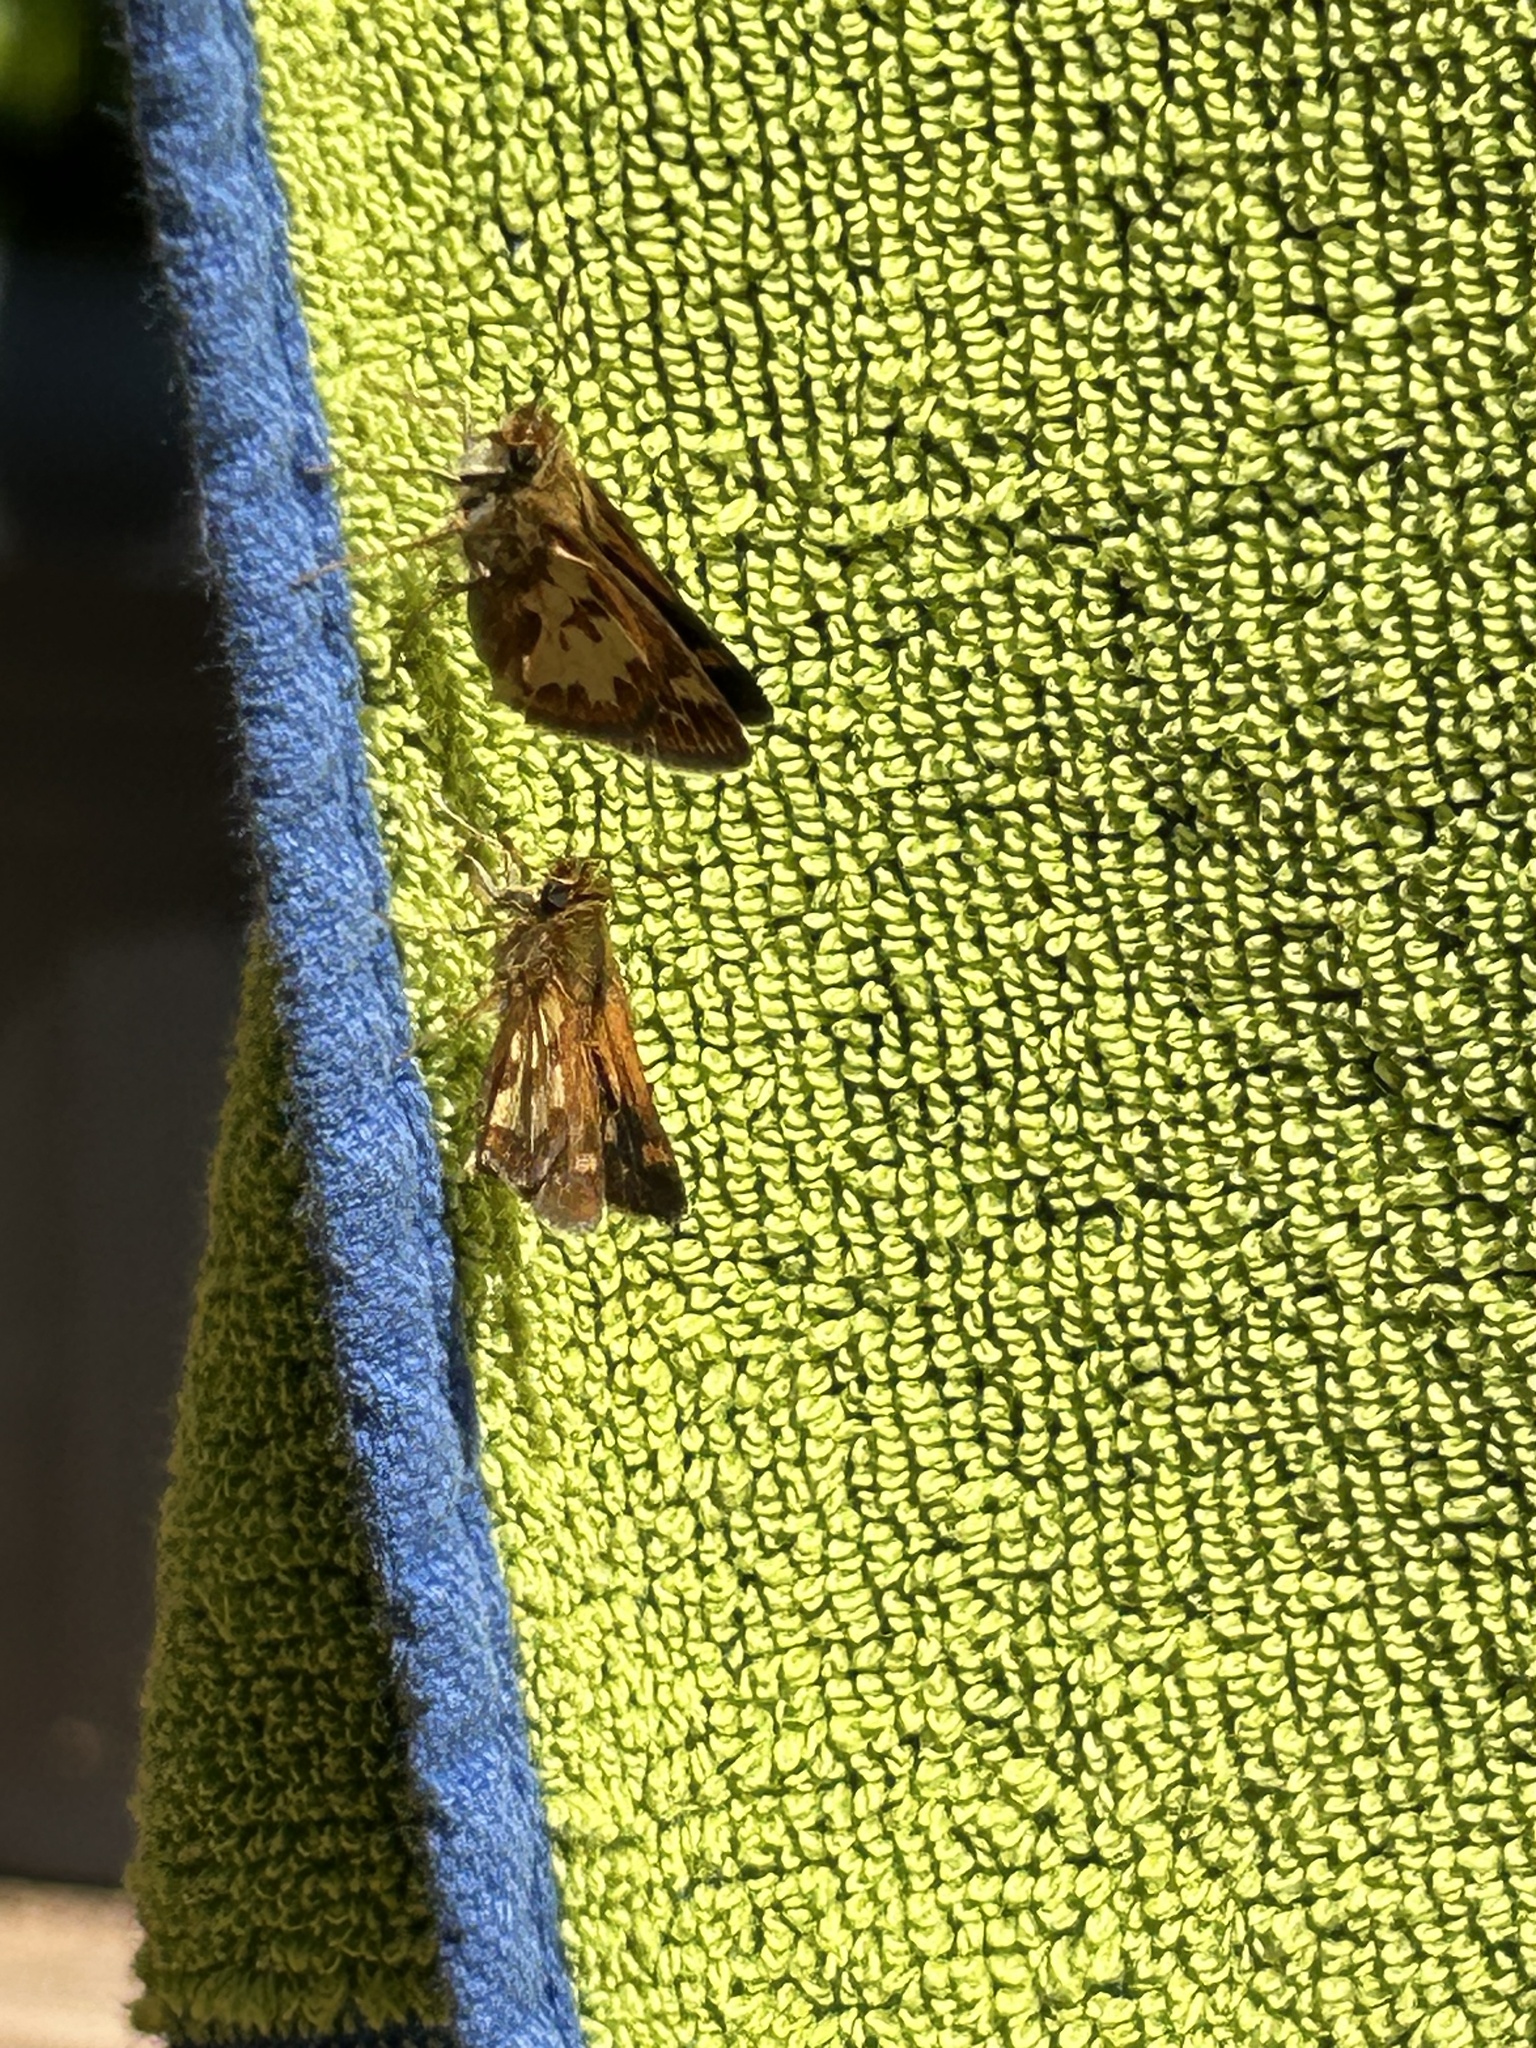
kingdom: Animalia
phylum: Arthropoda
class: Insecta
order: Lepidoptera
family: Hesperiidae
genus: Polites
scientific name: Polites coras
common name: Peck's skipper
